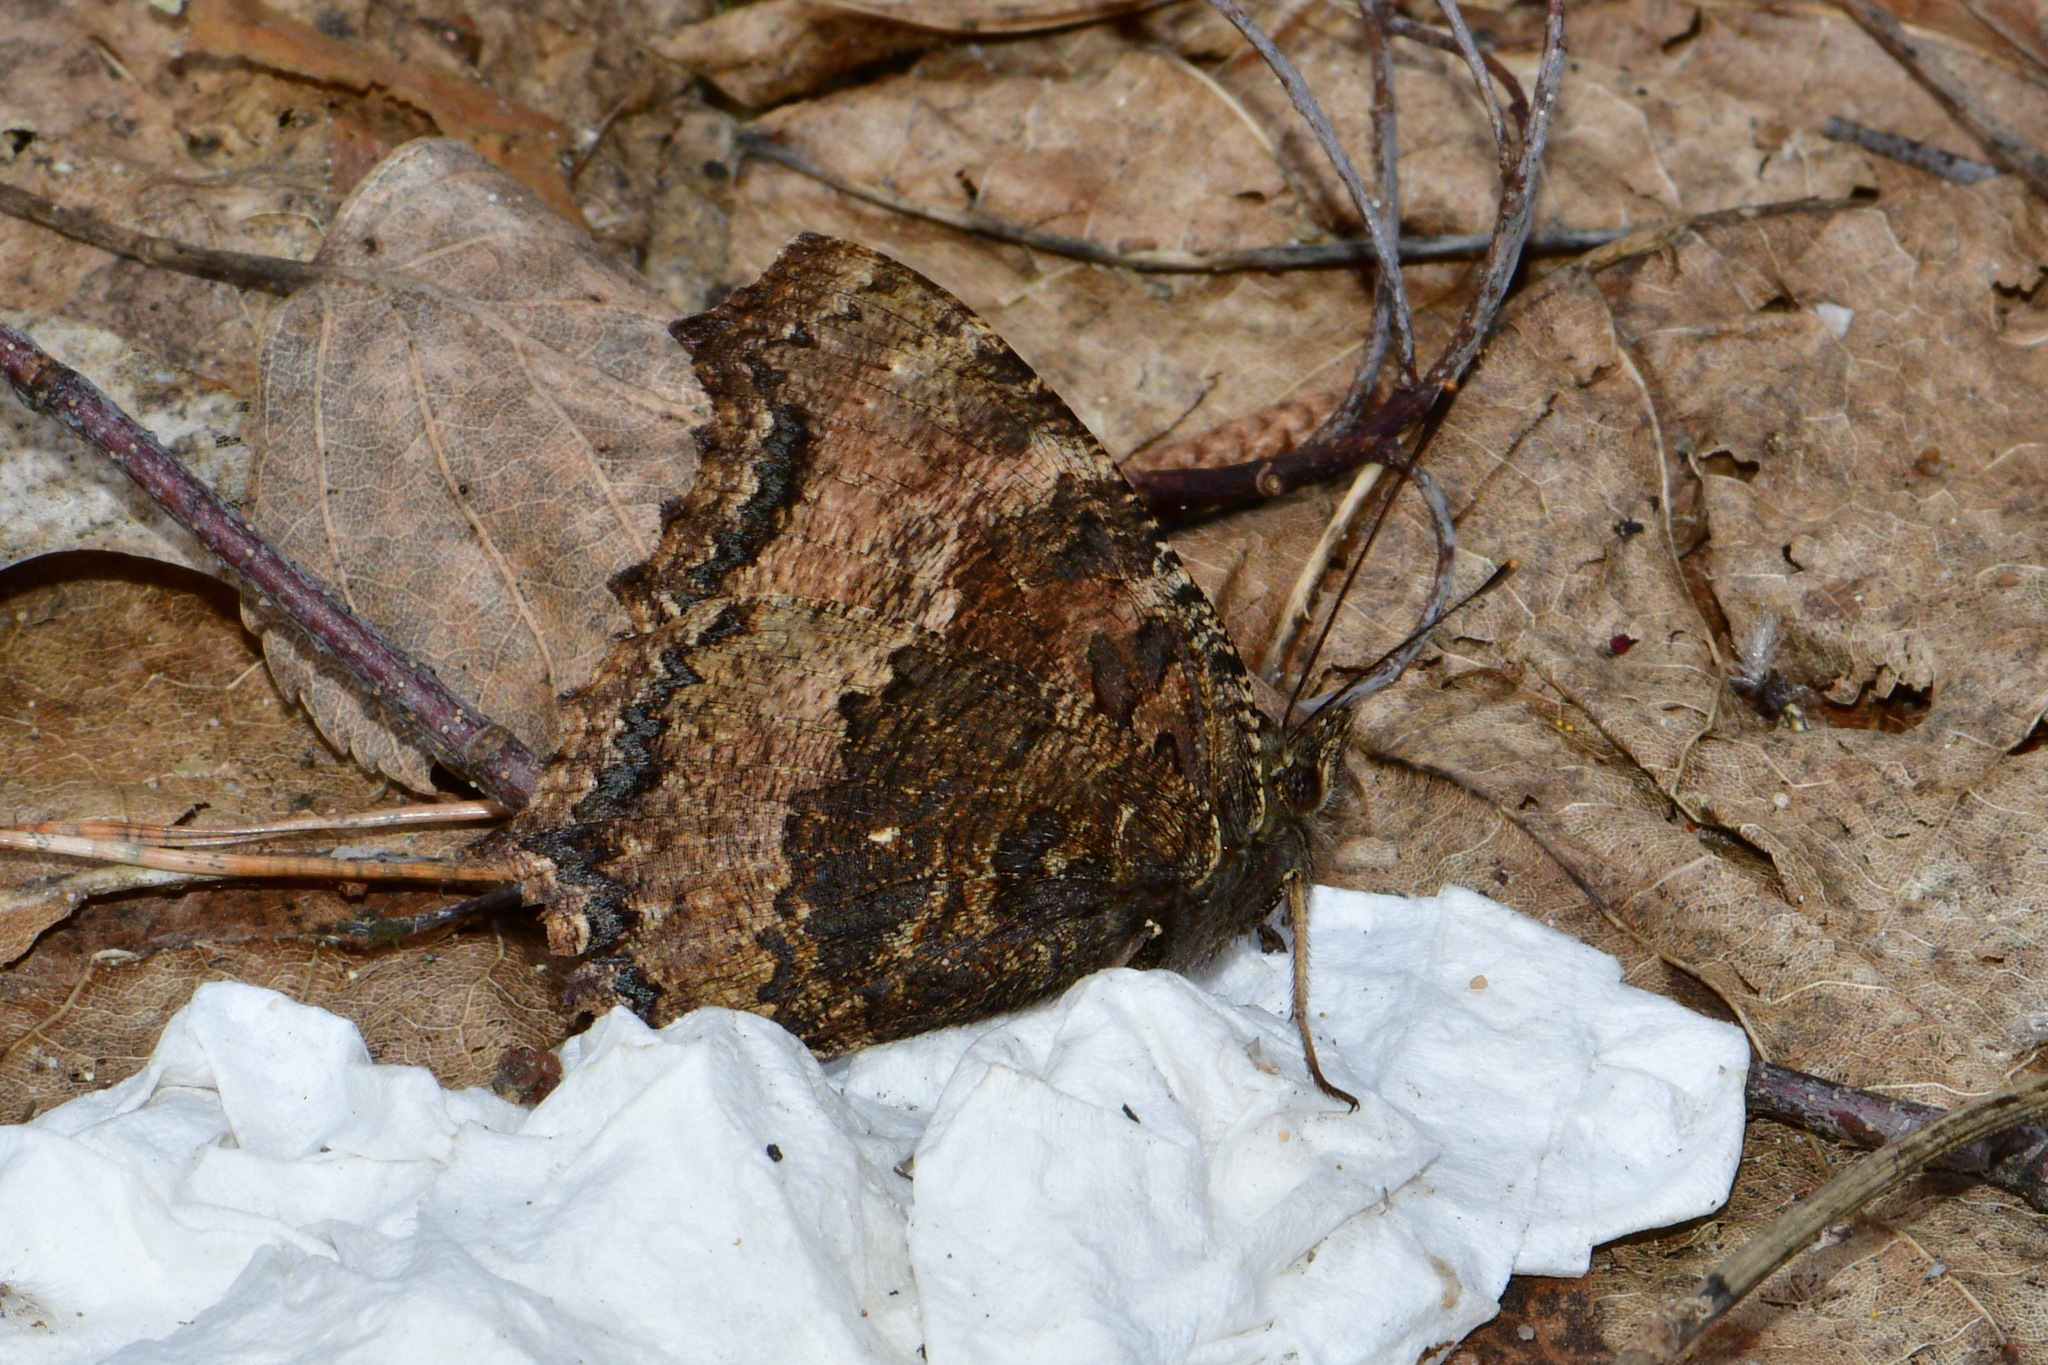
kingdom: Animalia
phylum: Arthropoda
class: Insecta
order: Lepidoptera
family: Nymphalidae
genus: Nymphalis
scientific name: Nymphalis xanthomelas
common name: Scarce tortoiseshell
